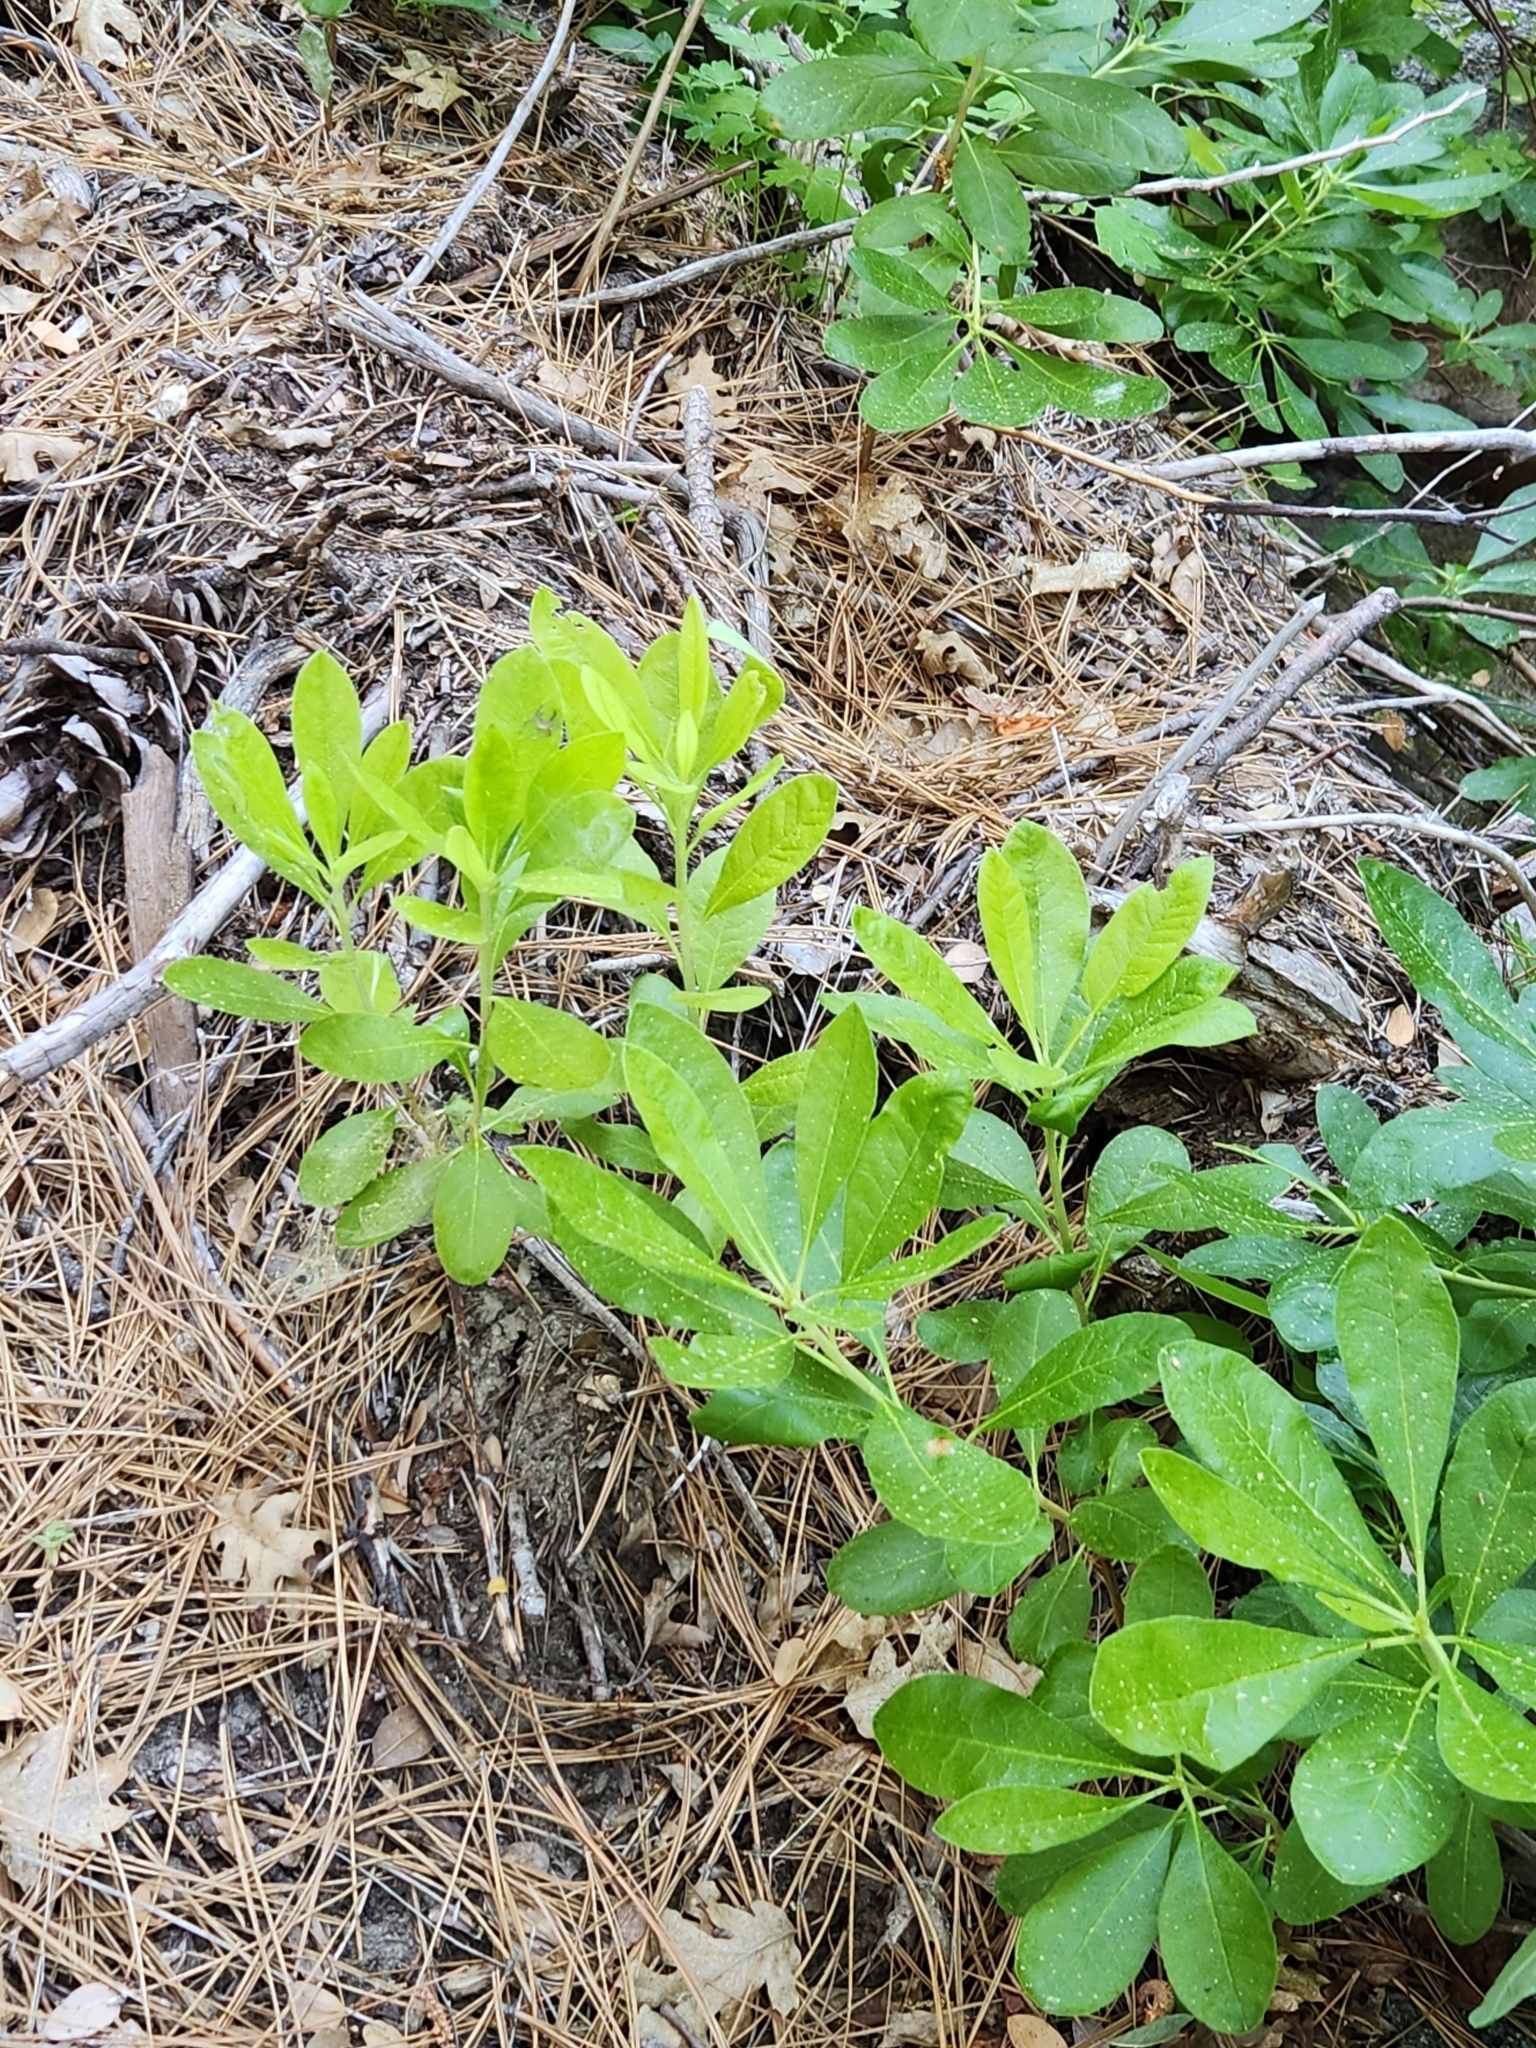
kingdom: Plantae
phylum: Tracheophyta
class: Magnoliopsida
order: Ericales
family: Ericaceae
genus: Rhododendron
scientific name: Rhododendron occidentale
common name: Western azalea
